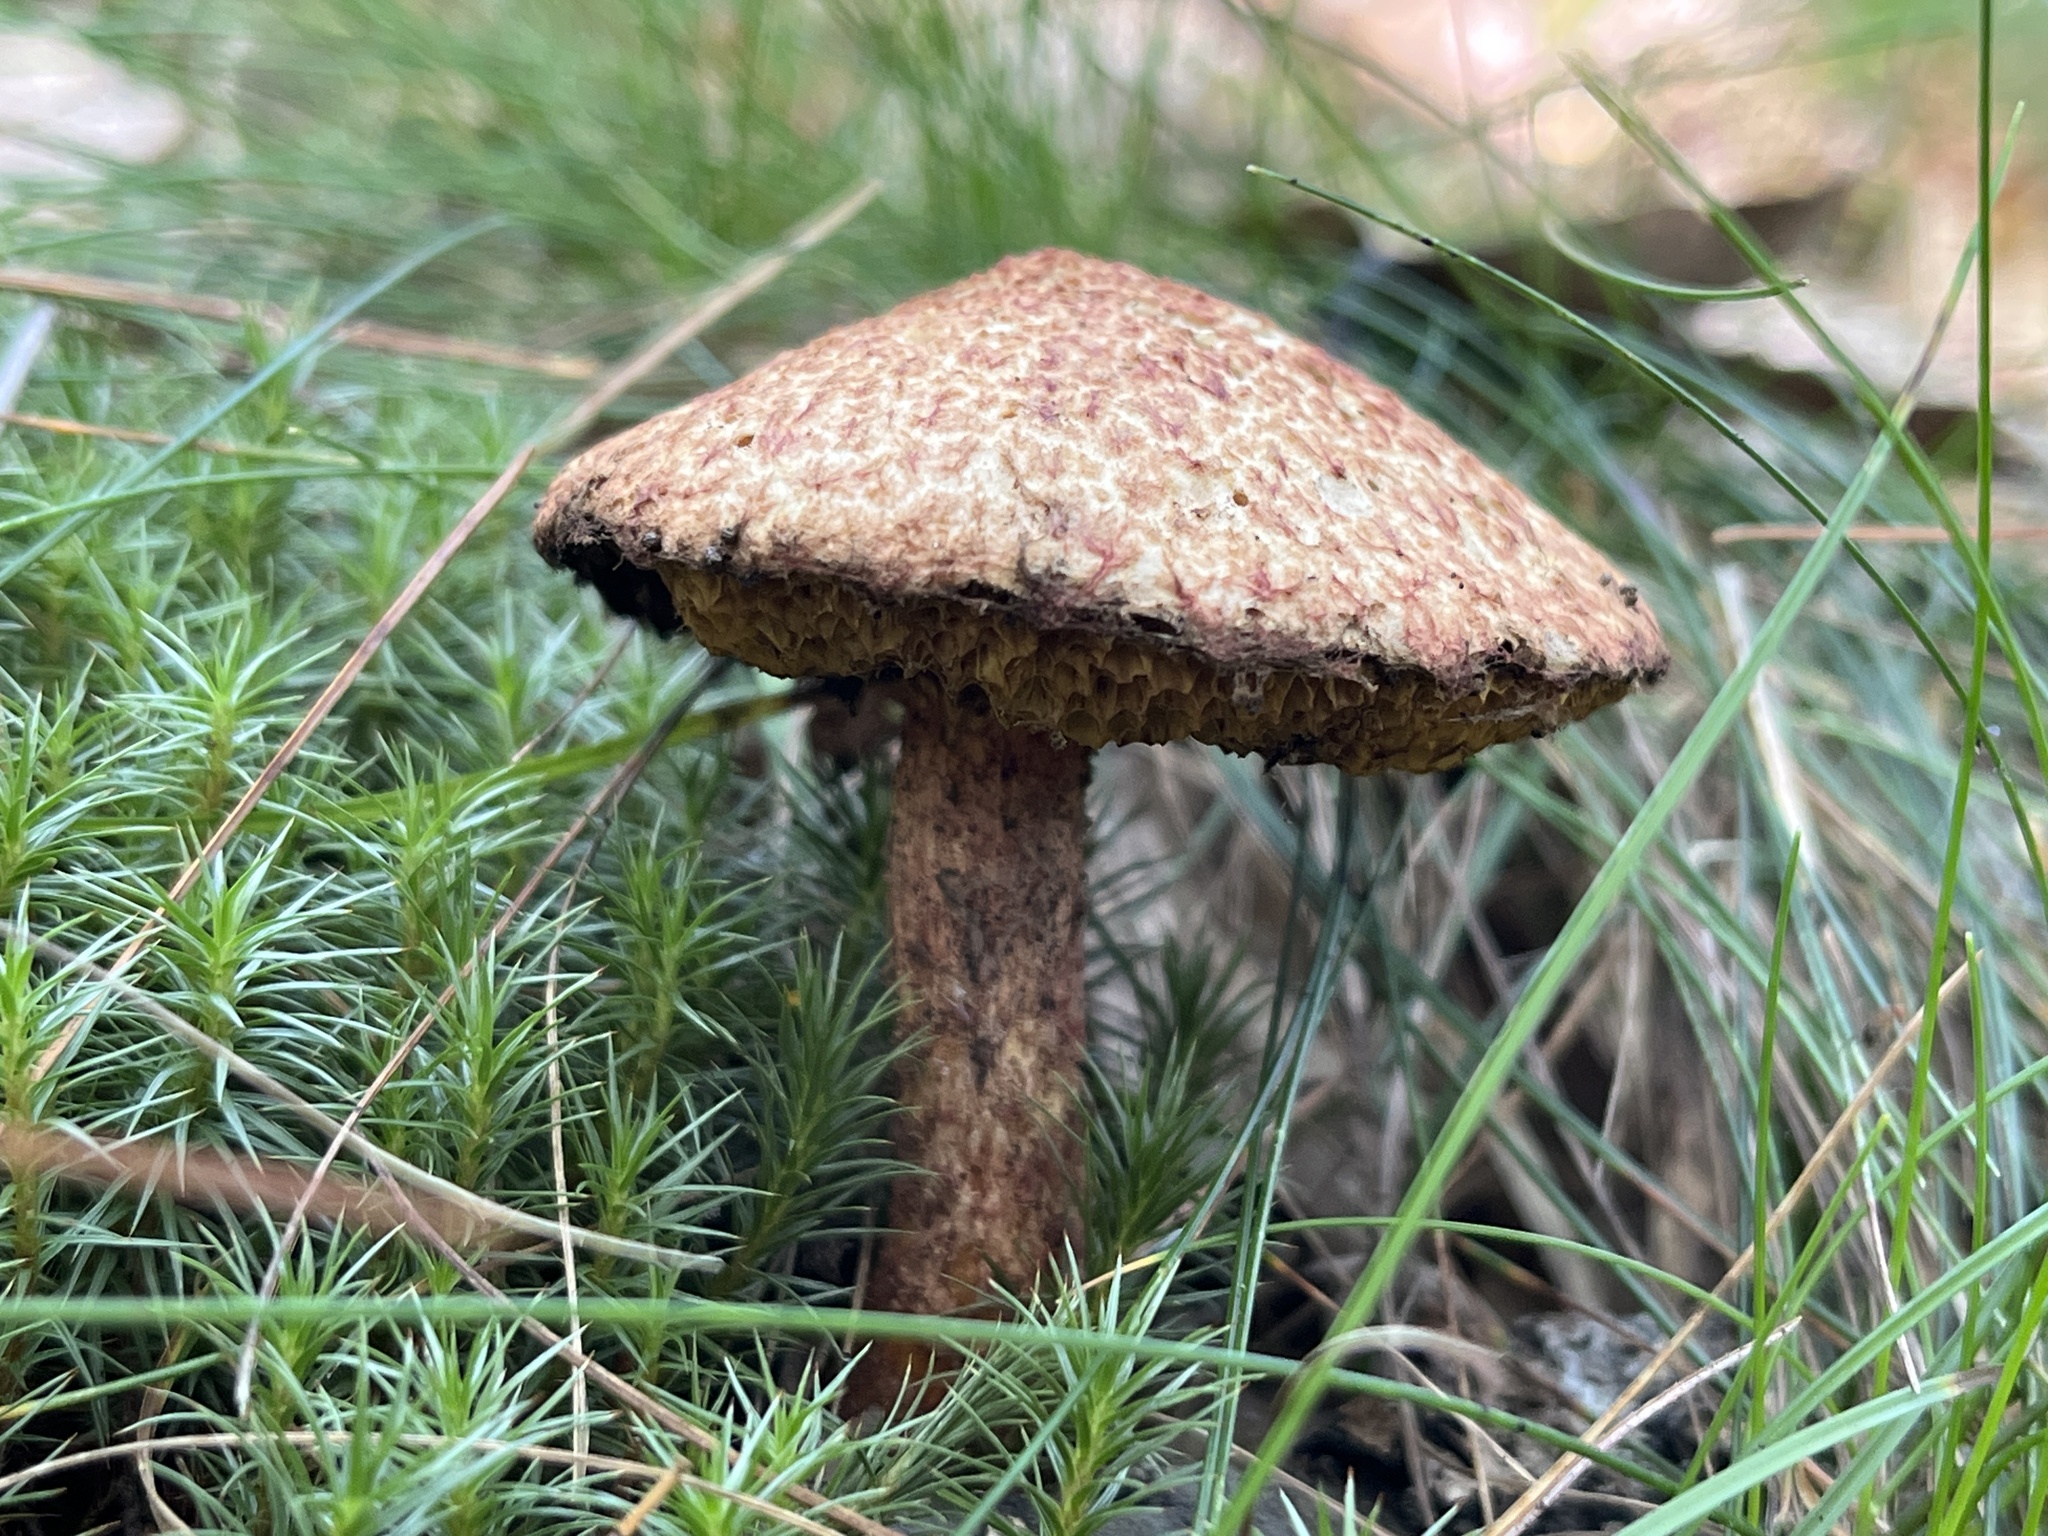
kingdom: Fungi
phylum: Basidiomycota
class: Agaricomycetes
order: Boletales
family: Suillaceae
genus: Suillus
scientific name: Suillus spraguei
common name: Painted suillus
